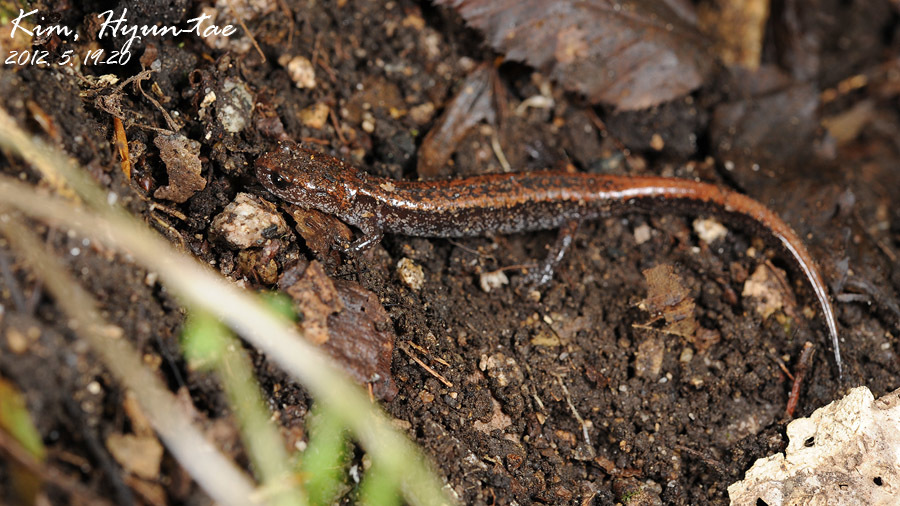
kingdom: Animalia
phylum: Chordata
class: Amphibia
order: Caudata
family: Plethodontidae
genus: Karsenia
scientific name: Karsenia koreana
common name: Korean crevice salamander
